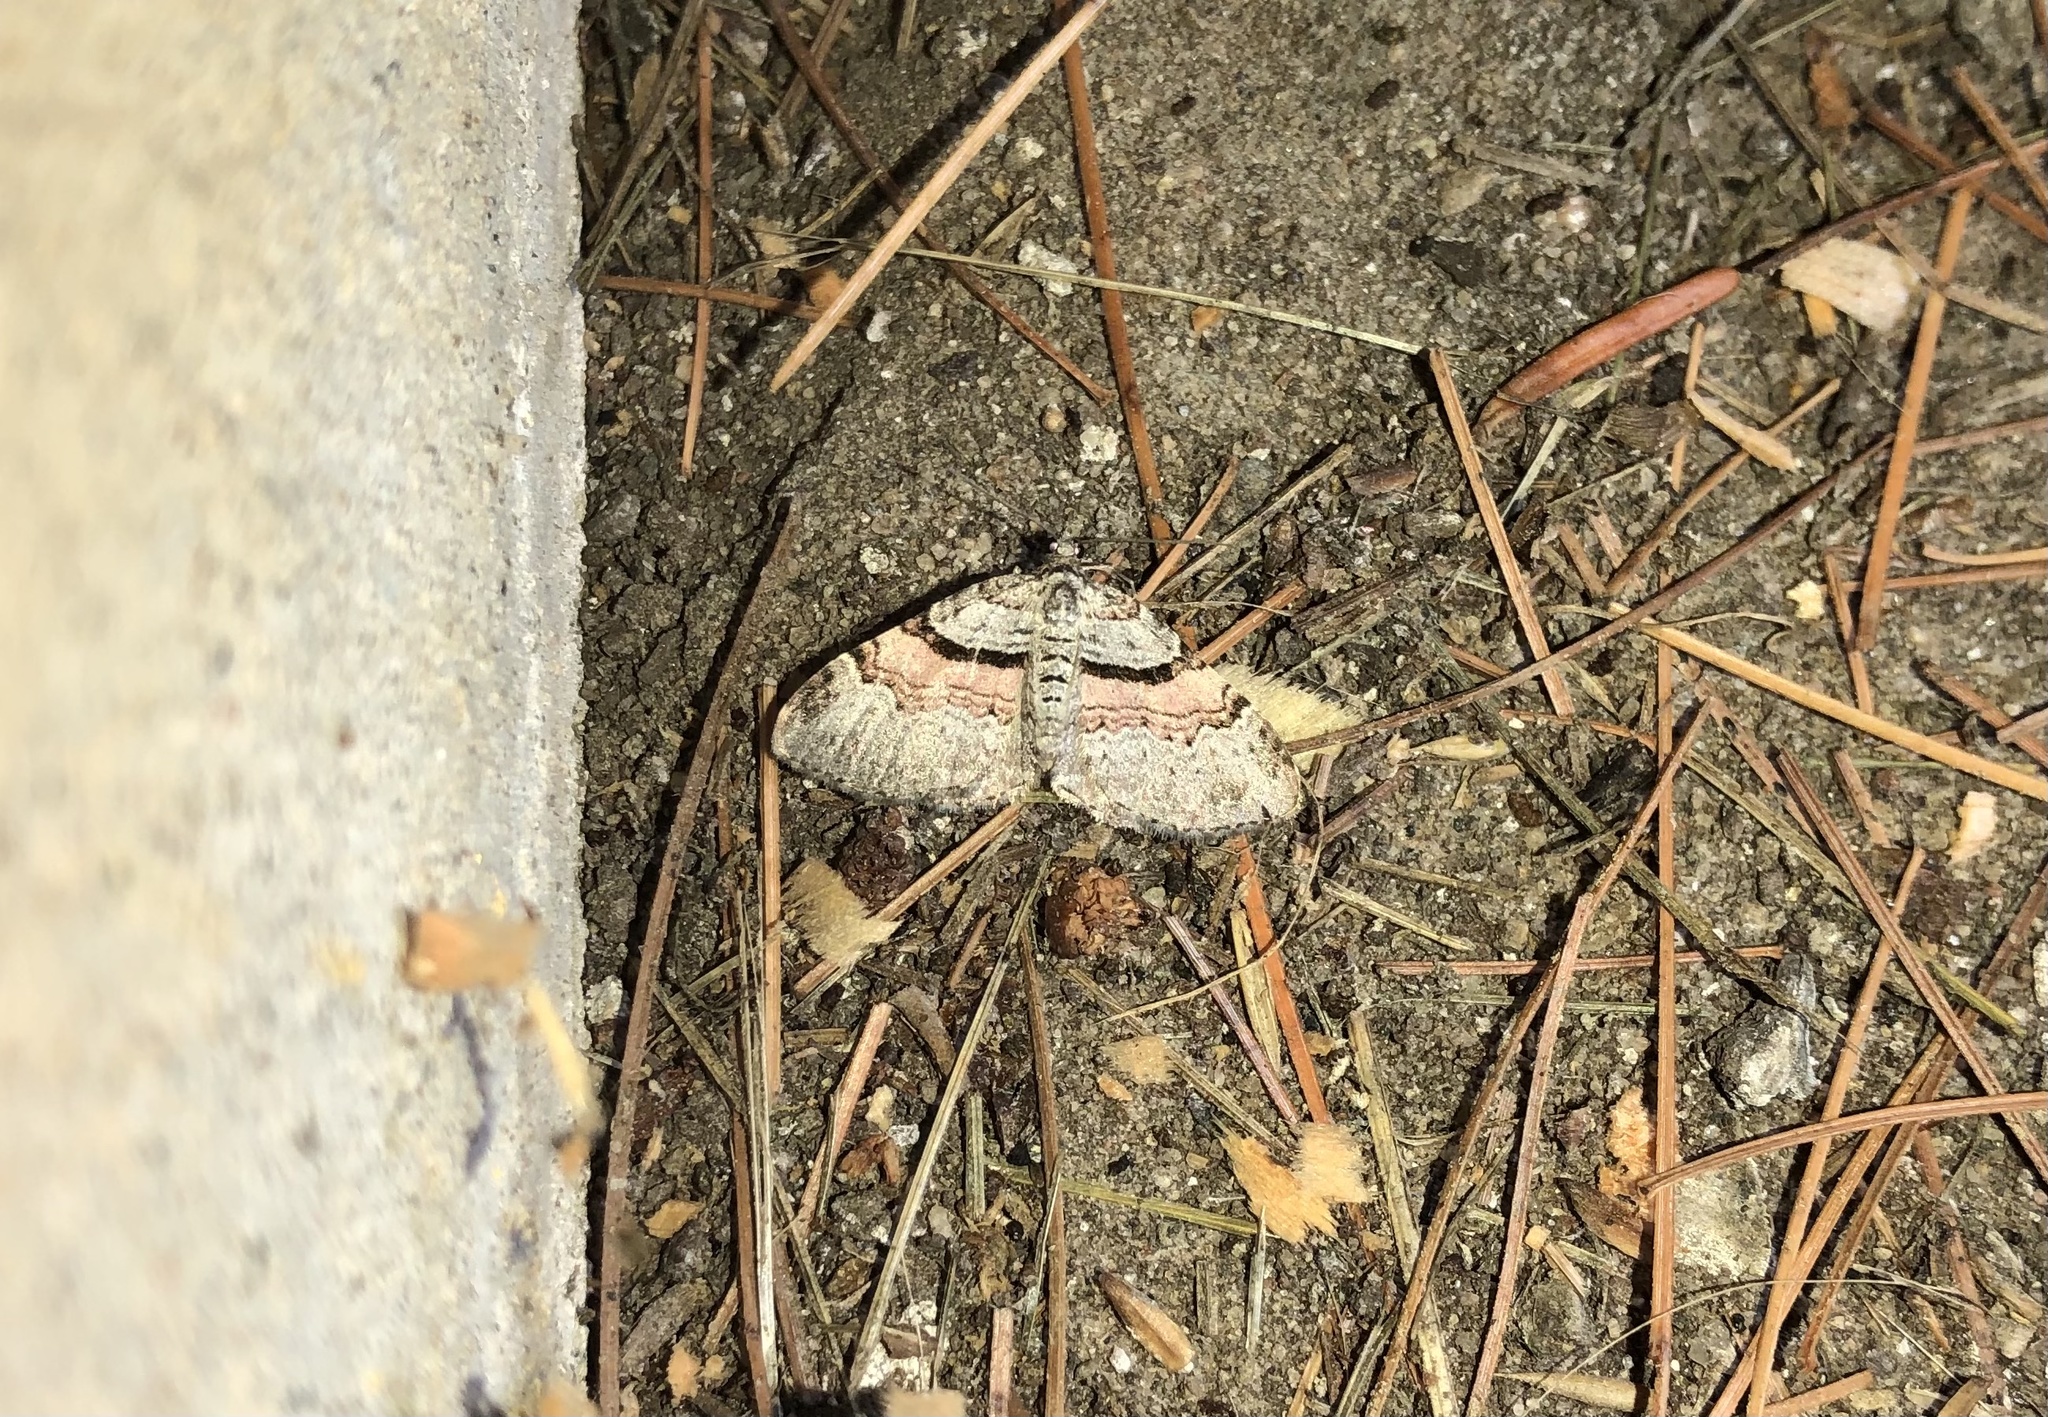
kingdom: Animalia
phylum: Arthropoda
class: Insecta
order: Lepidoptera
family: Geometridae
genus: Xanthorhoe
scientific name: Xanthorhoe labradorensis
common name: Labrador carpet
